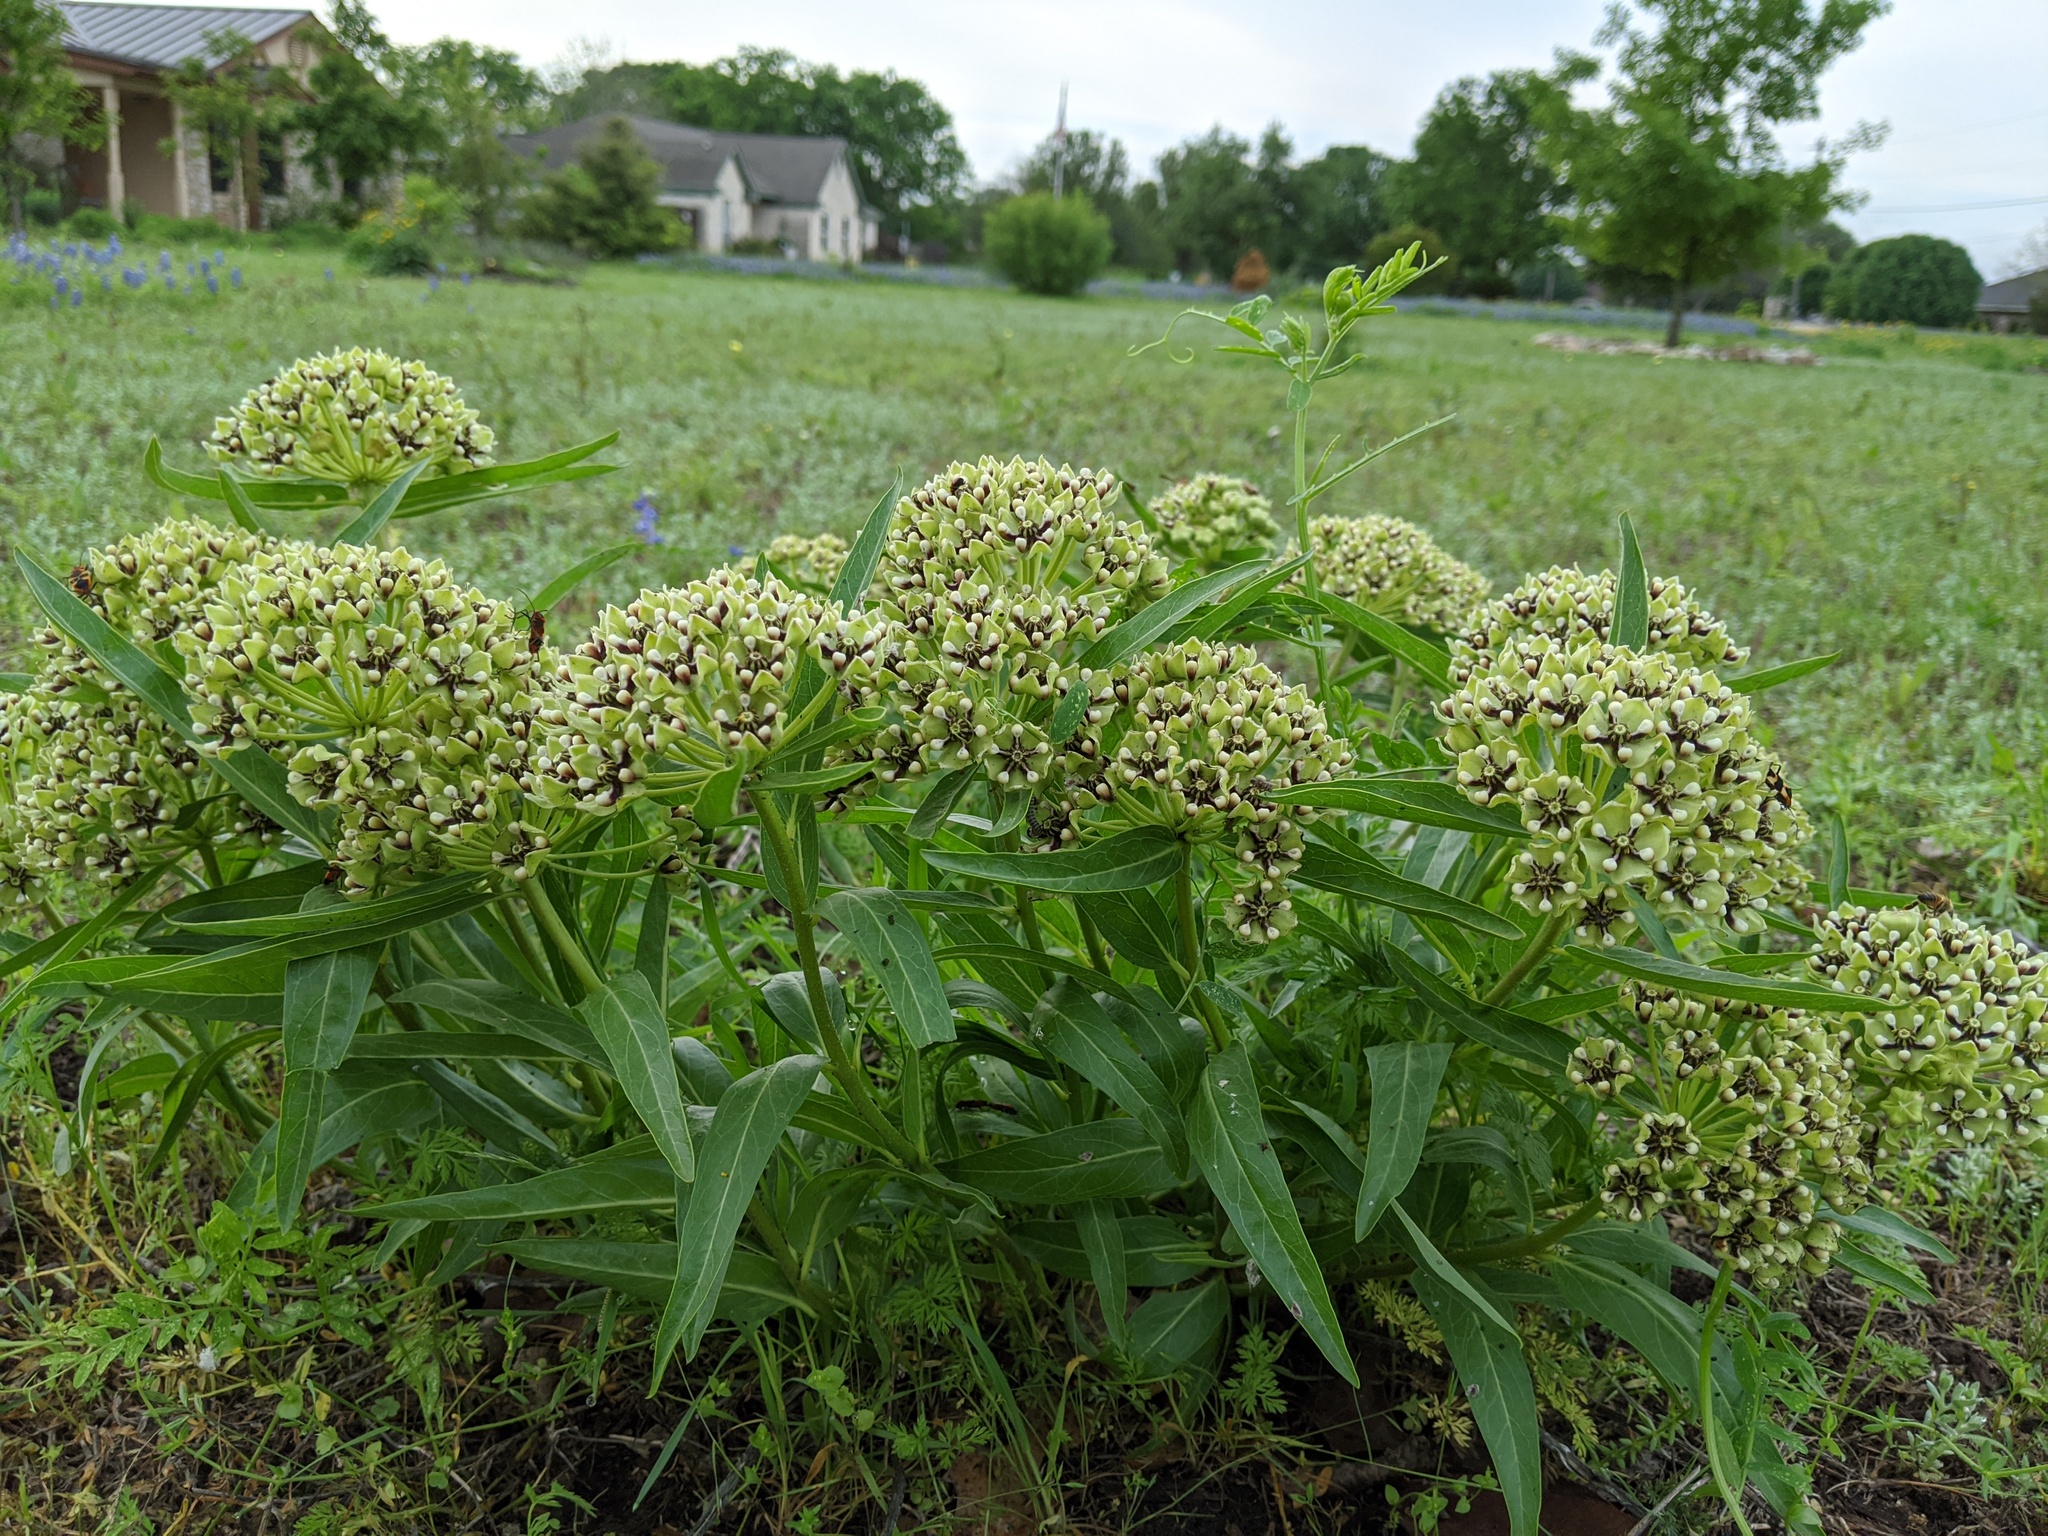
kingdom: Plantae
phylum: Tracheophyta
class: Magnoliopsida
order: Gentianales
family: Apocynaceae
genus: Asclepias
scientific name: Asclepias asperula
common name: Antelope horns
